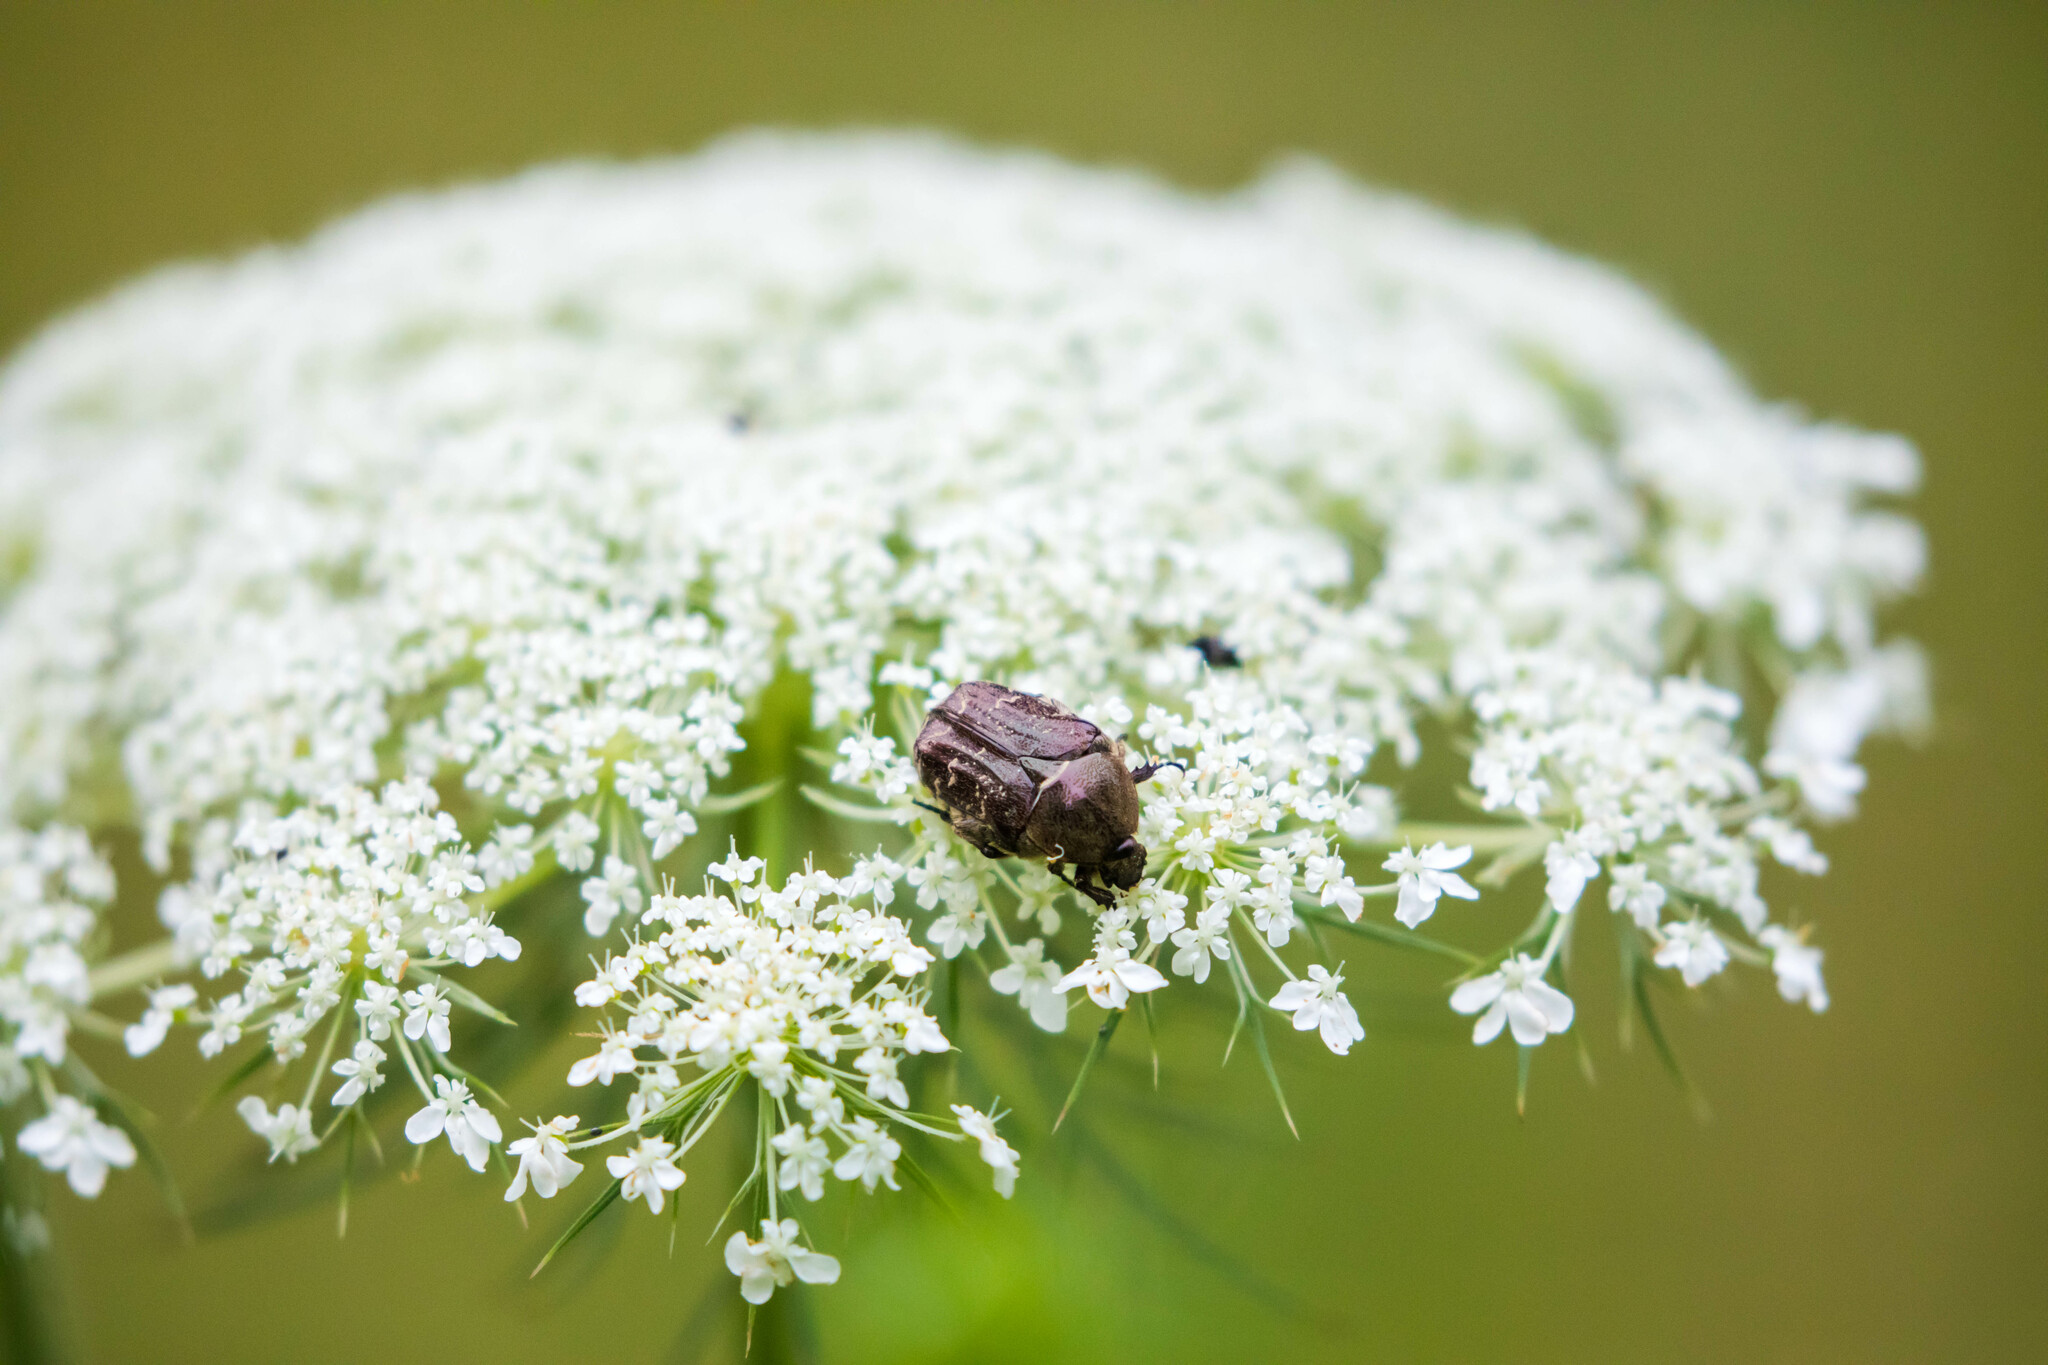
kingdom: Animalia
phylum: Arthropoda
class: Insecta
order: Coleoptera
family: Scarabaeidae
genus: Euphoria
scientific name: Euphoria sepulcralis
